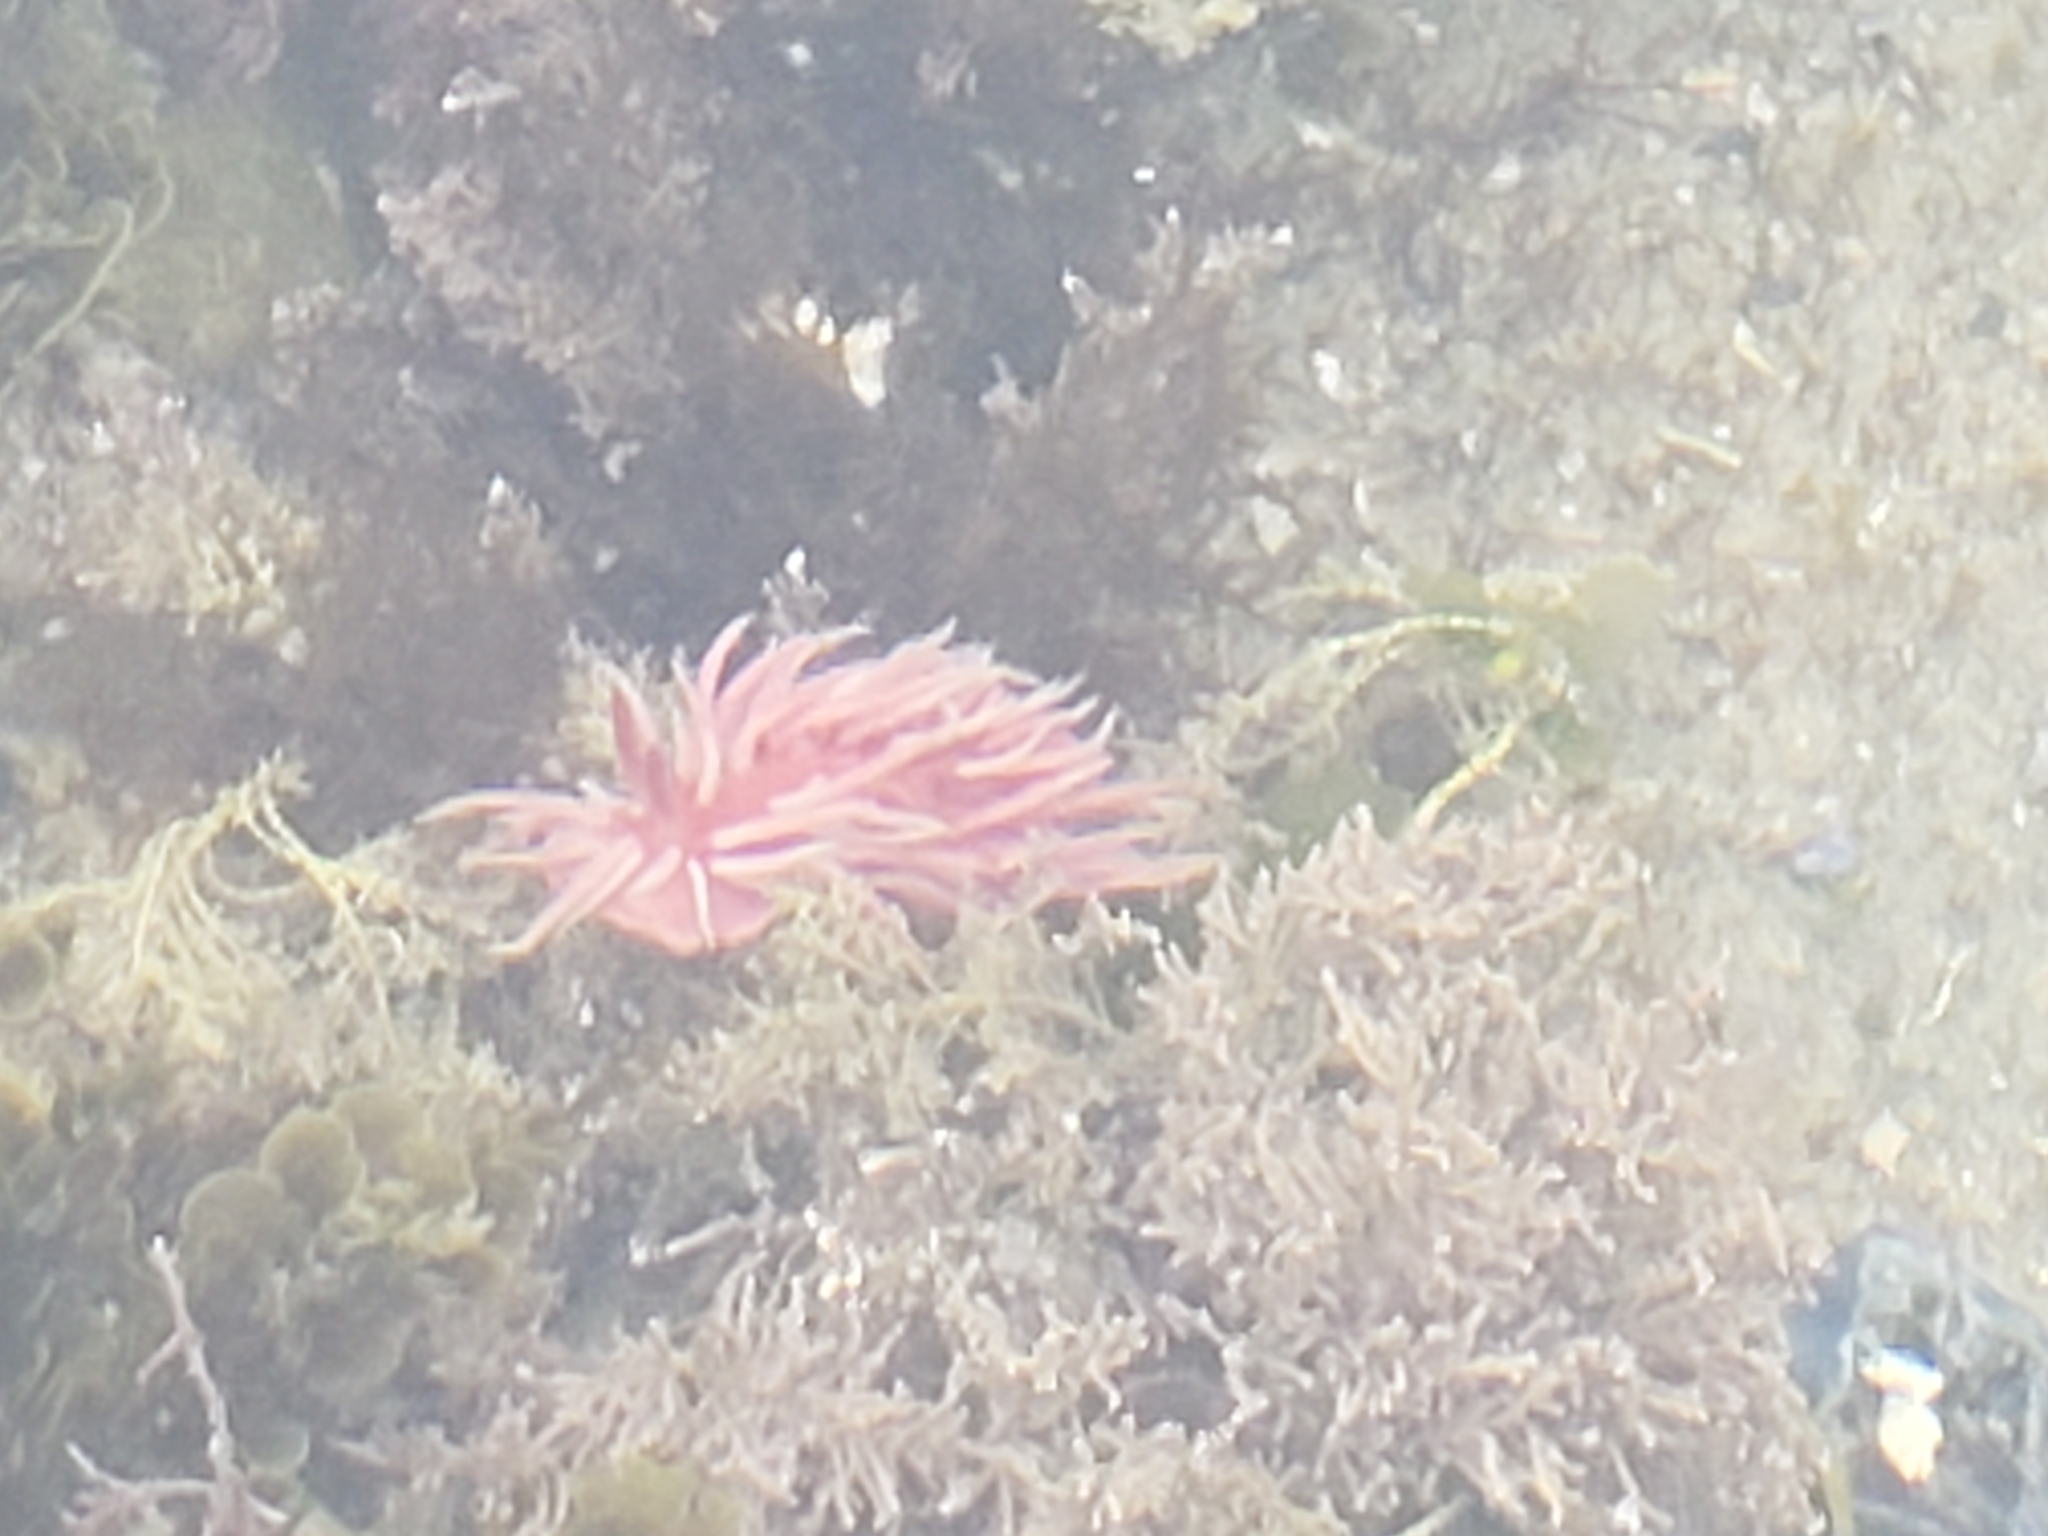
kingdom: Animalia
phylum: Mollusca
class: Gastropoda
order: Nudibranchia
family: Goniodorididae
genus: Okenia
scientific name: Okenia
